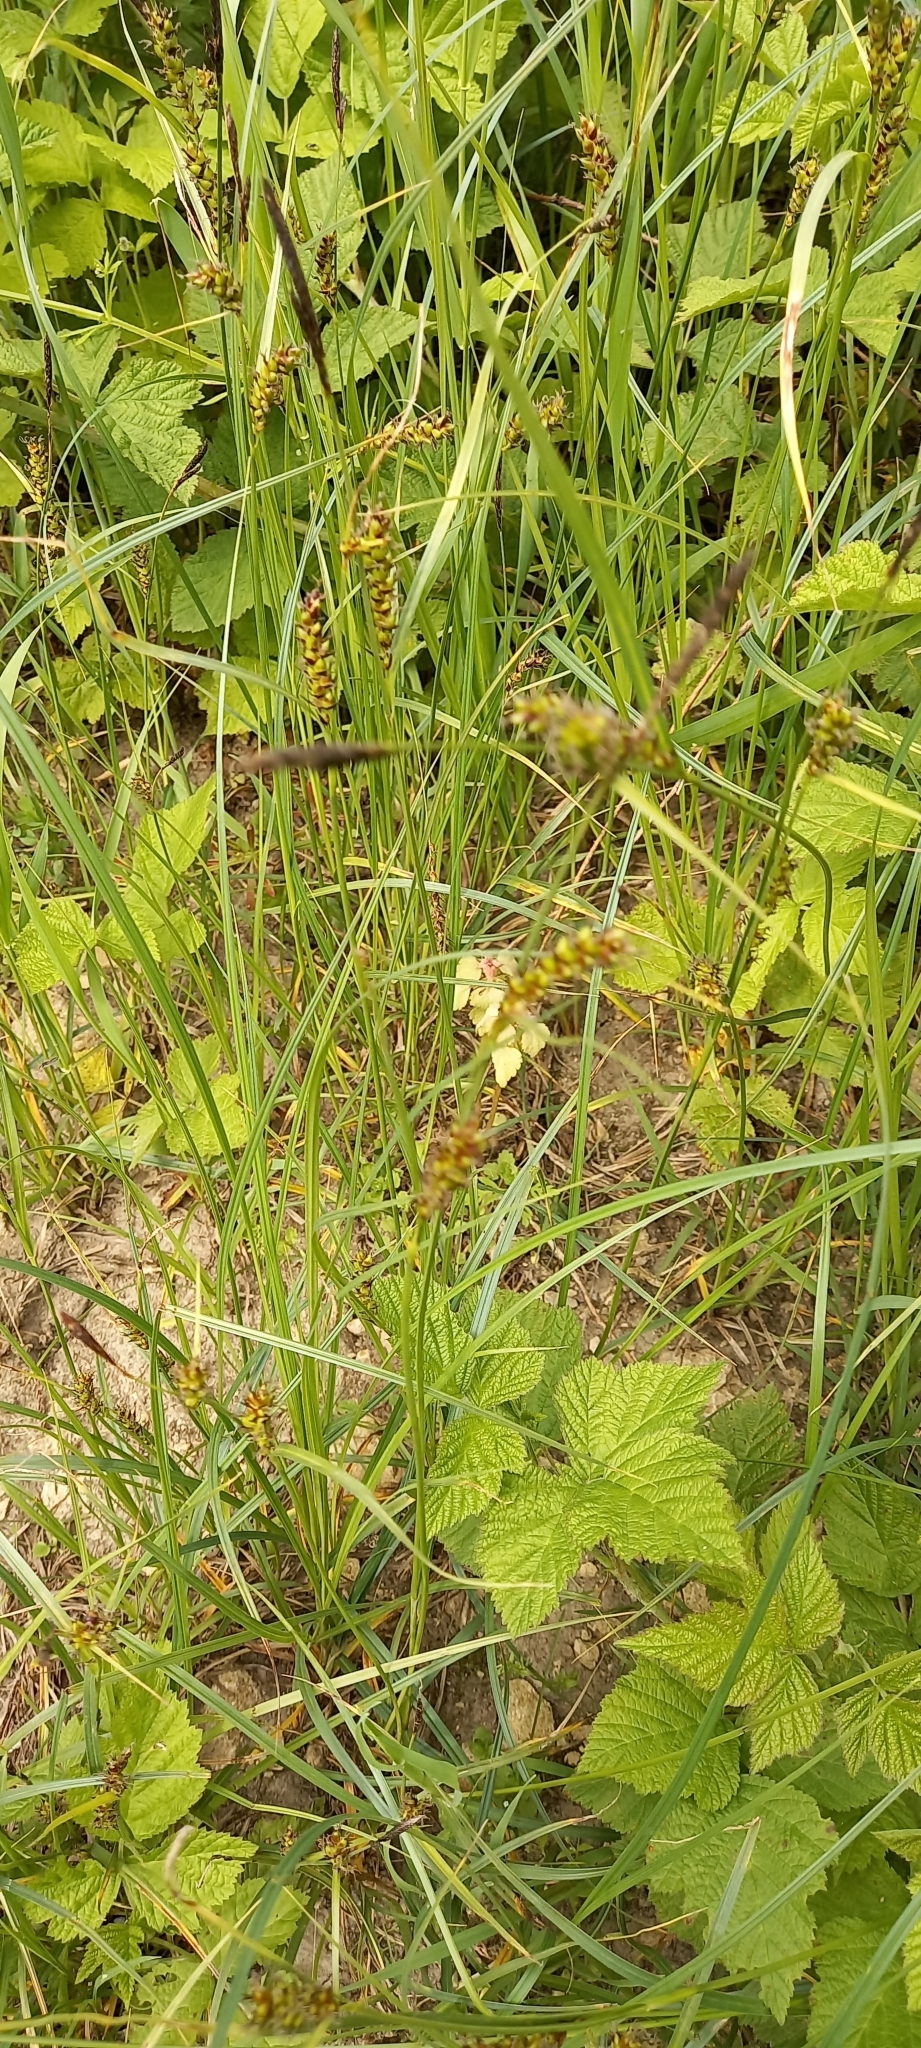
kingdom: Plantae
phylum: Tracheophyta
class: Liliopsida
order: Poales
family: Cyperaceae
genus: Carex
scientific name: Carex melanostachya
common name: Black-spiked sedge
